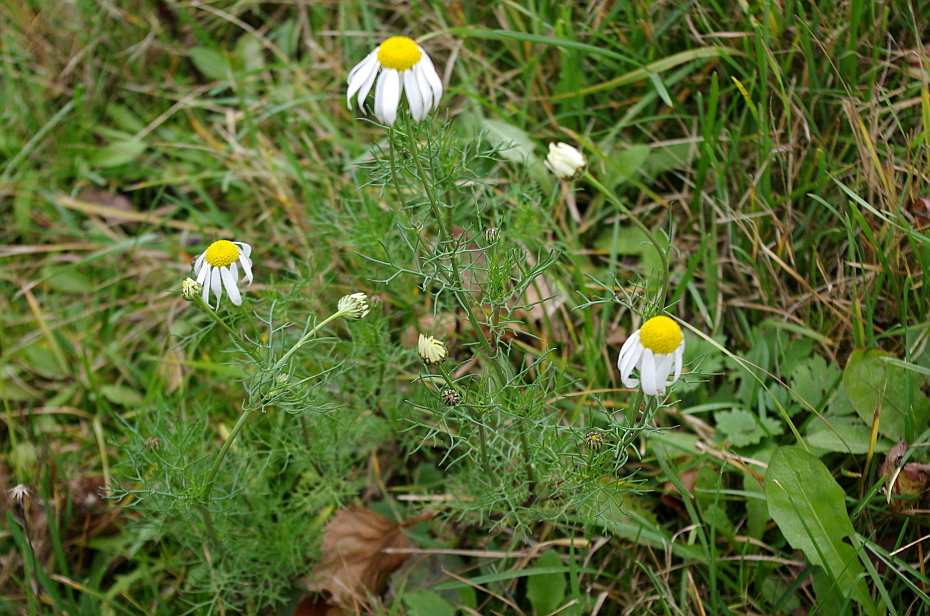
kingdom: Plantae
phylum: Tracheophyta
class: Magnoliopsida
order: Asterales
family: Asteraceae
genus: Tripleurospermum
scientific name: Tripleurospermum inodorum
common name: Scentless mayweed
